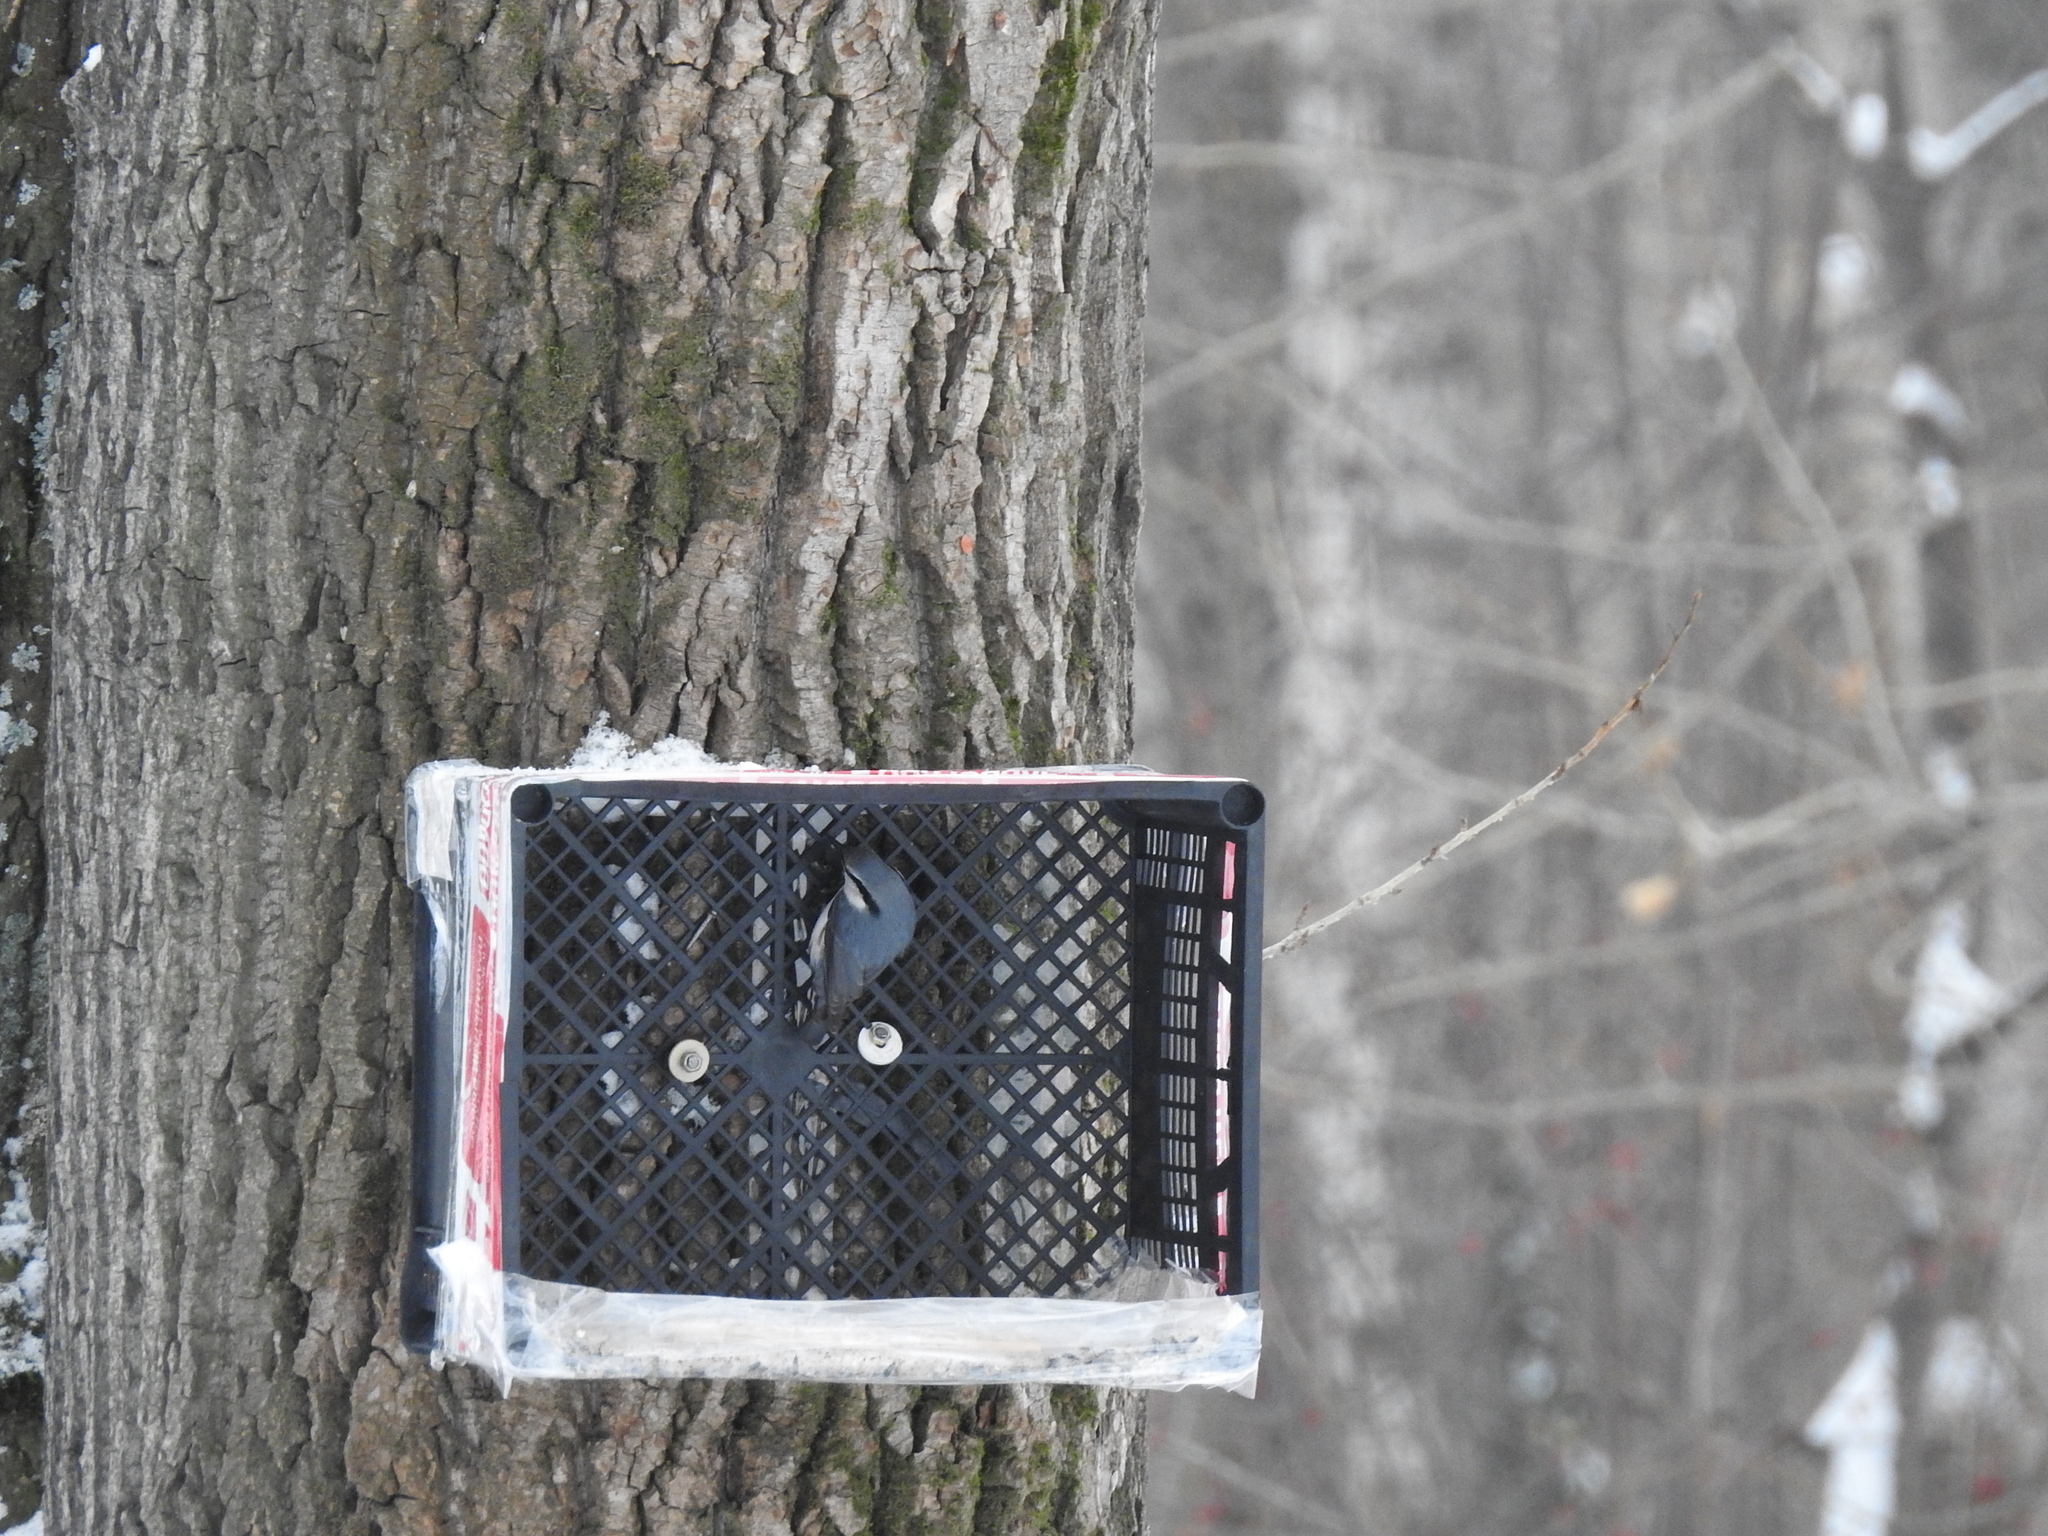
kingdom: Animalia
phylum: Chordata
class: Aves
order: Passeriformes
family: Sittidae
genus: Sitta
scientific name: Sitta europaea
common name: Eurasian nuthatch
